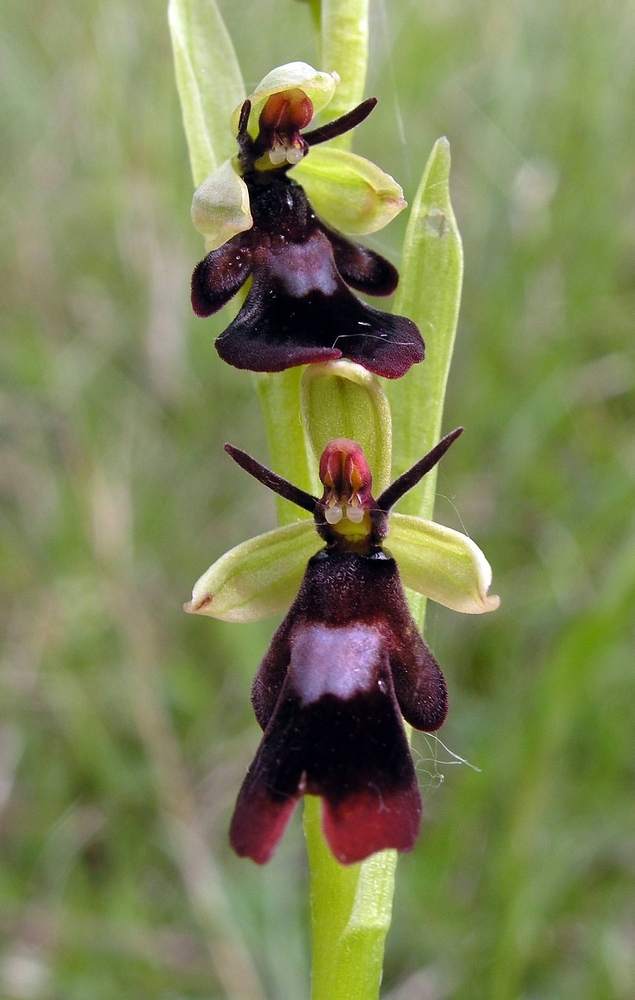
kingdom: Plantae
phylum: Tracheophyta
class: Liliopsida
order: Asparagales
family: Orchidaceae
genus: Ophrys
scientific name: Ophrys insectifera
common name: Fly orchid
